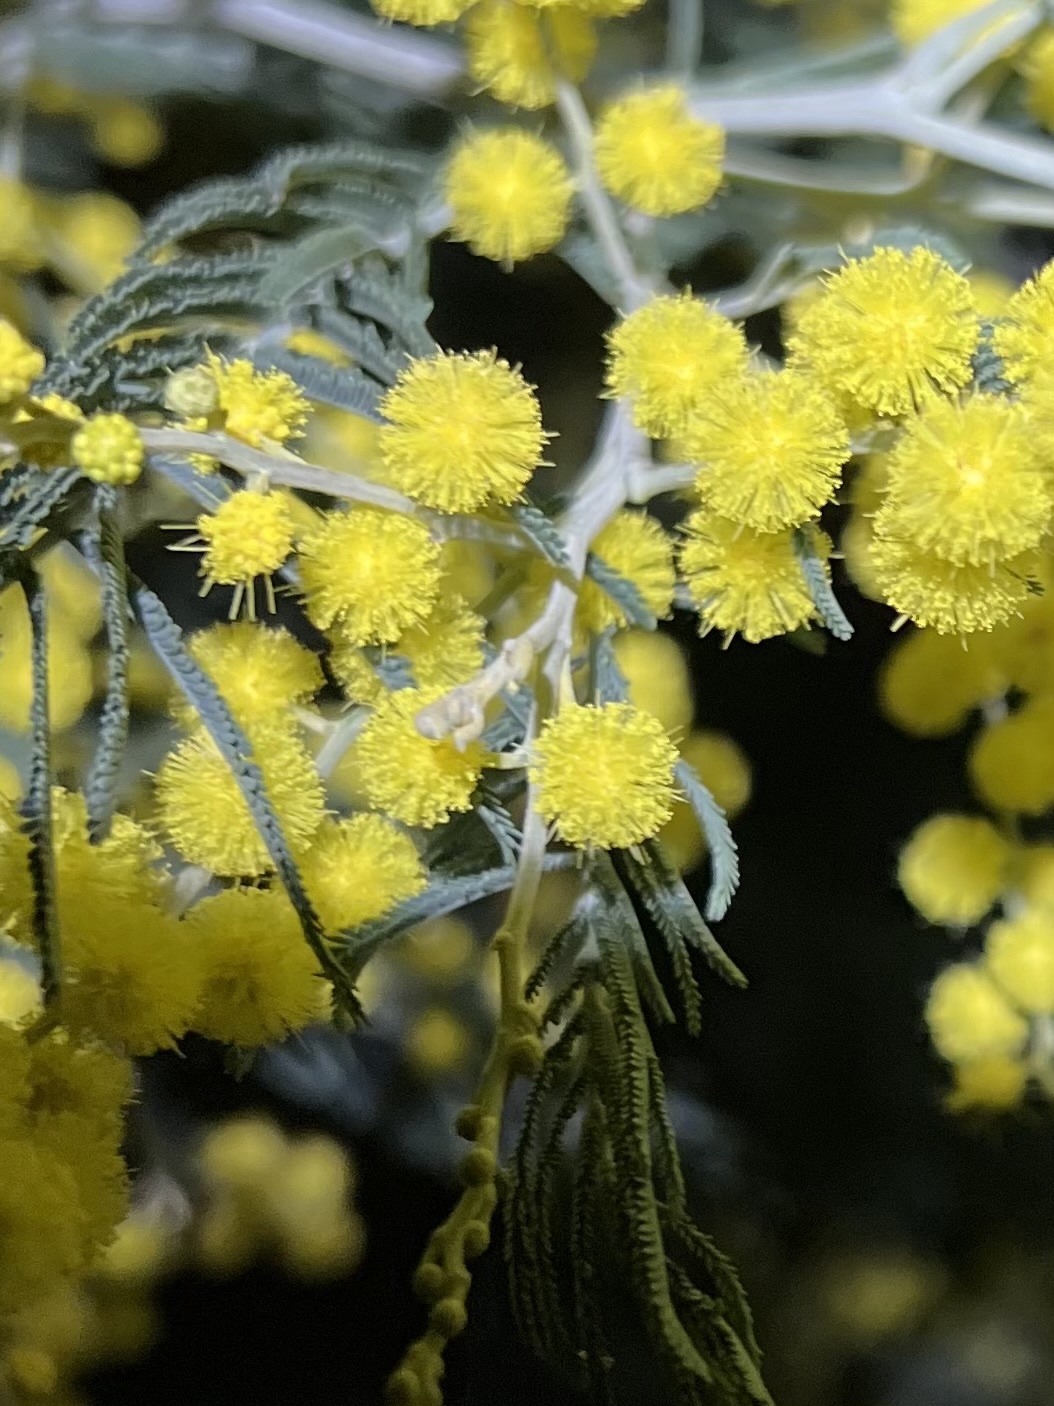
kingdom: Plantae
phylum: Tracheophyta
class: Magnoliopsida
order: Fabales
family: Fabaceae
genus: Acacia
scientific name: Acacia baileyana
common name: Cootamundra wattle
